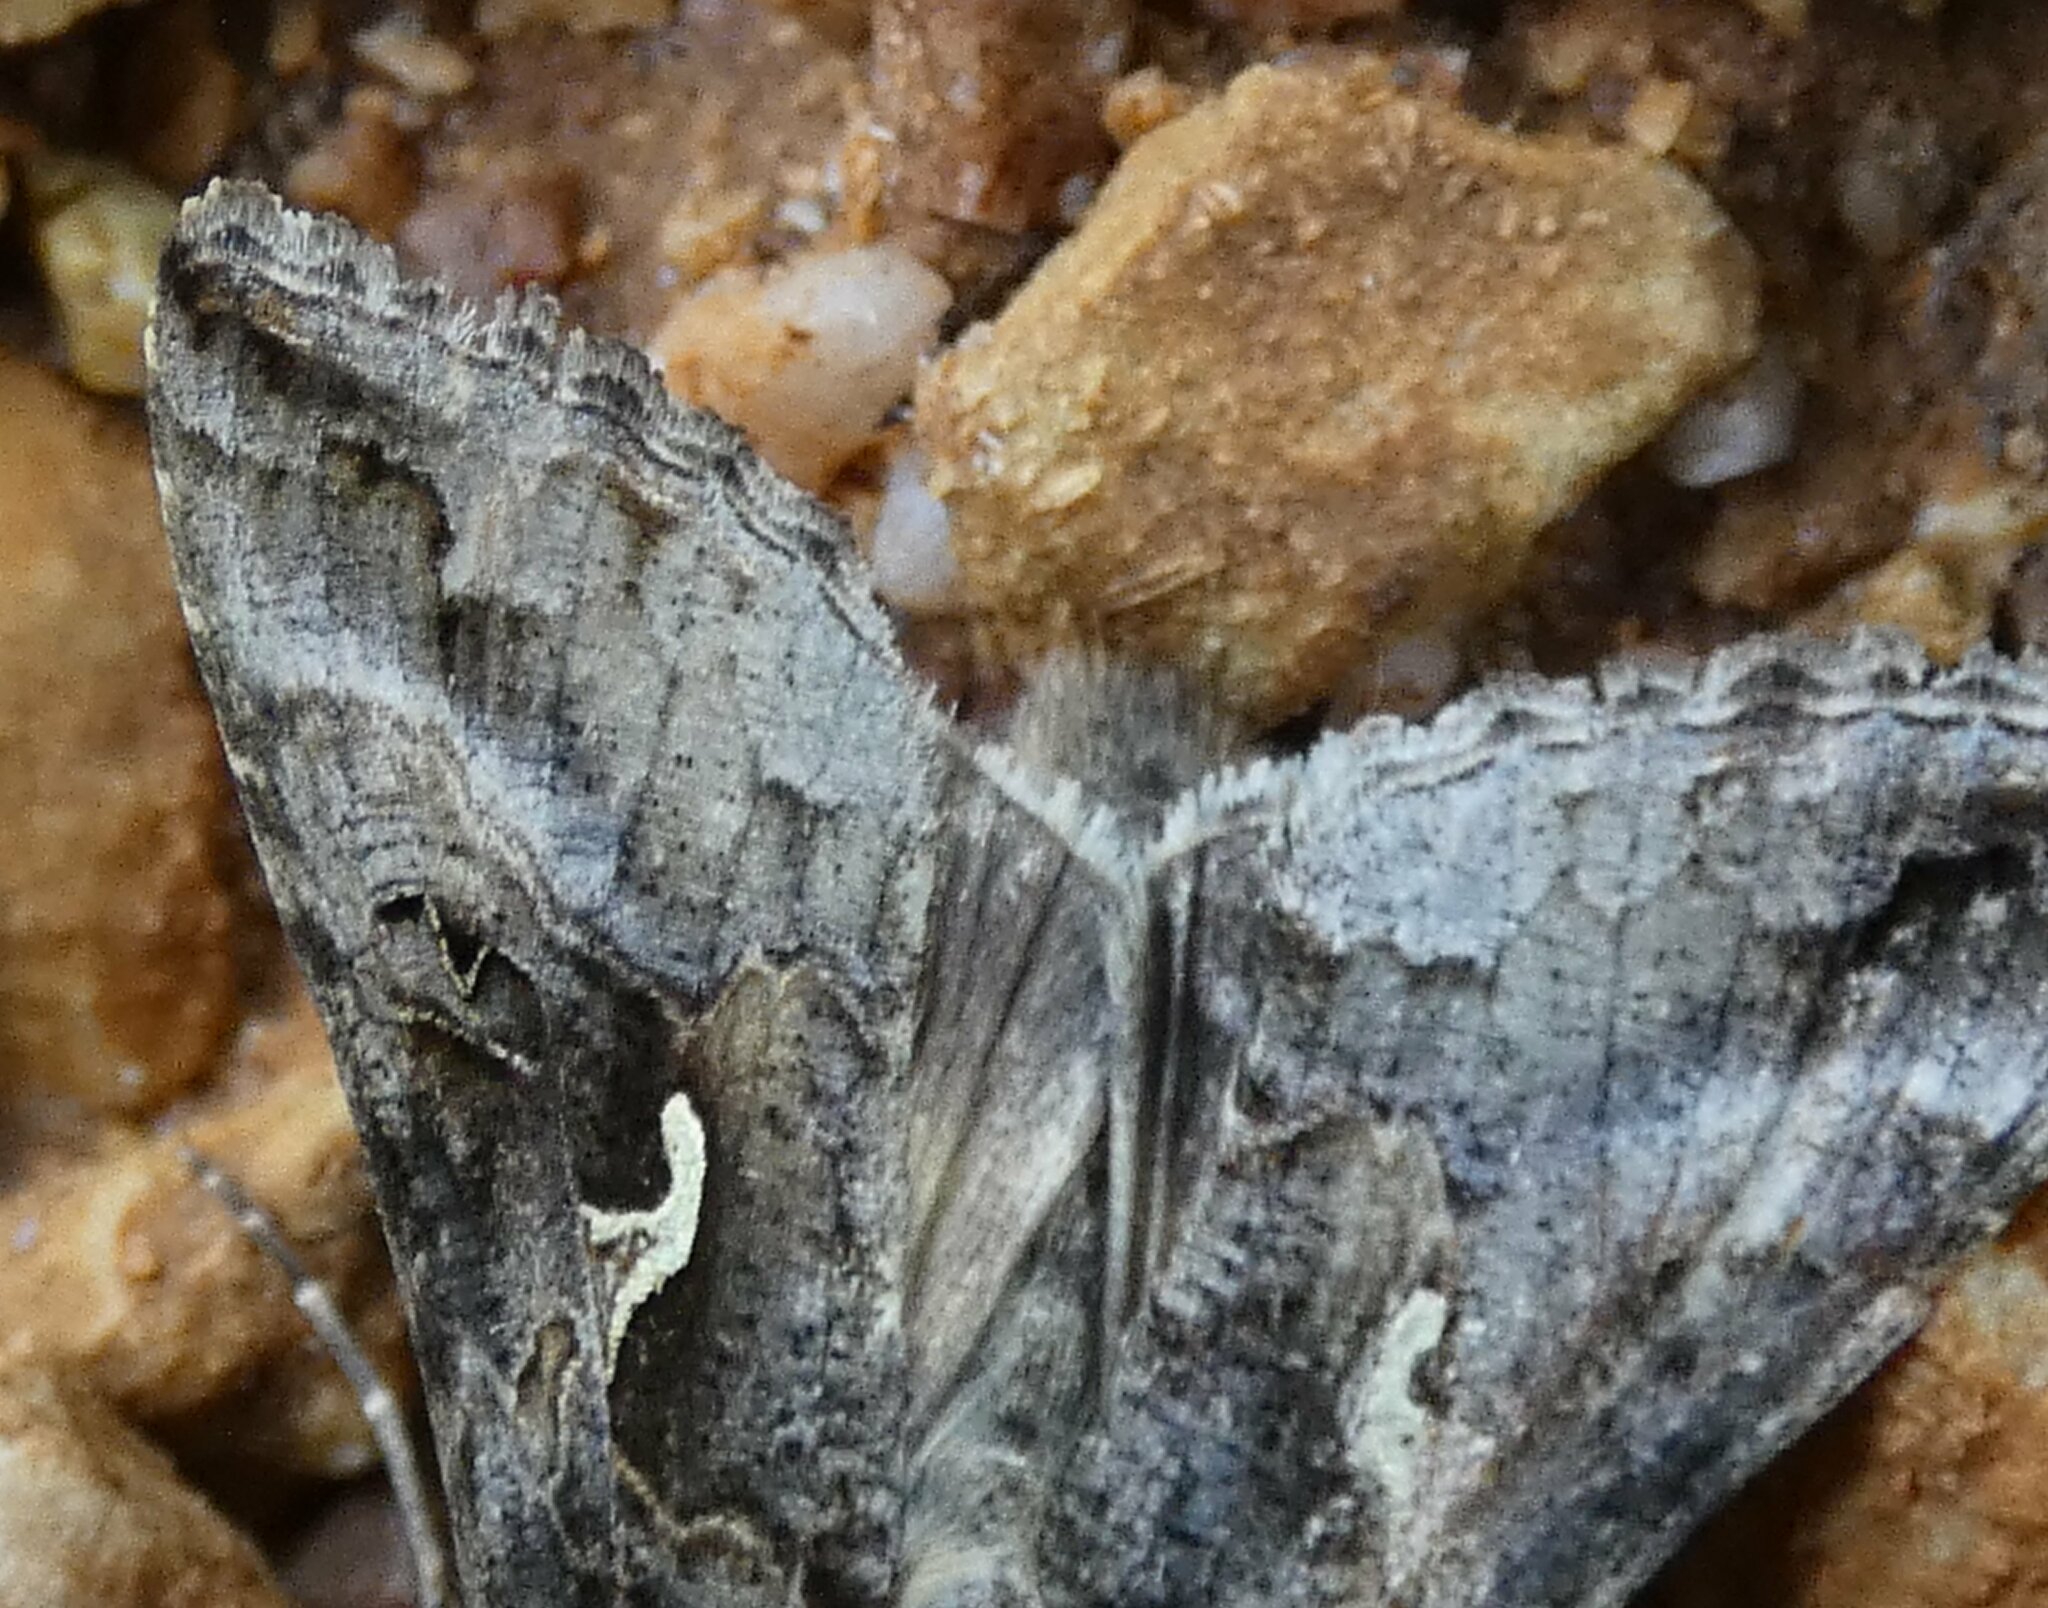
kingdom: Animalia
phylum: Arthropoda
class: Insecta
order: Lepidoptera
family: Noctuidae
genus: Autographa
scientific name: Autographa gamma
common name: Silver y
